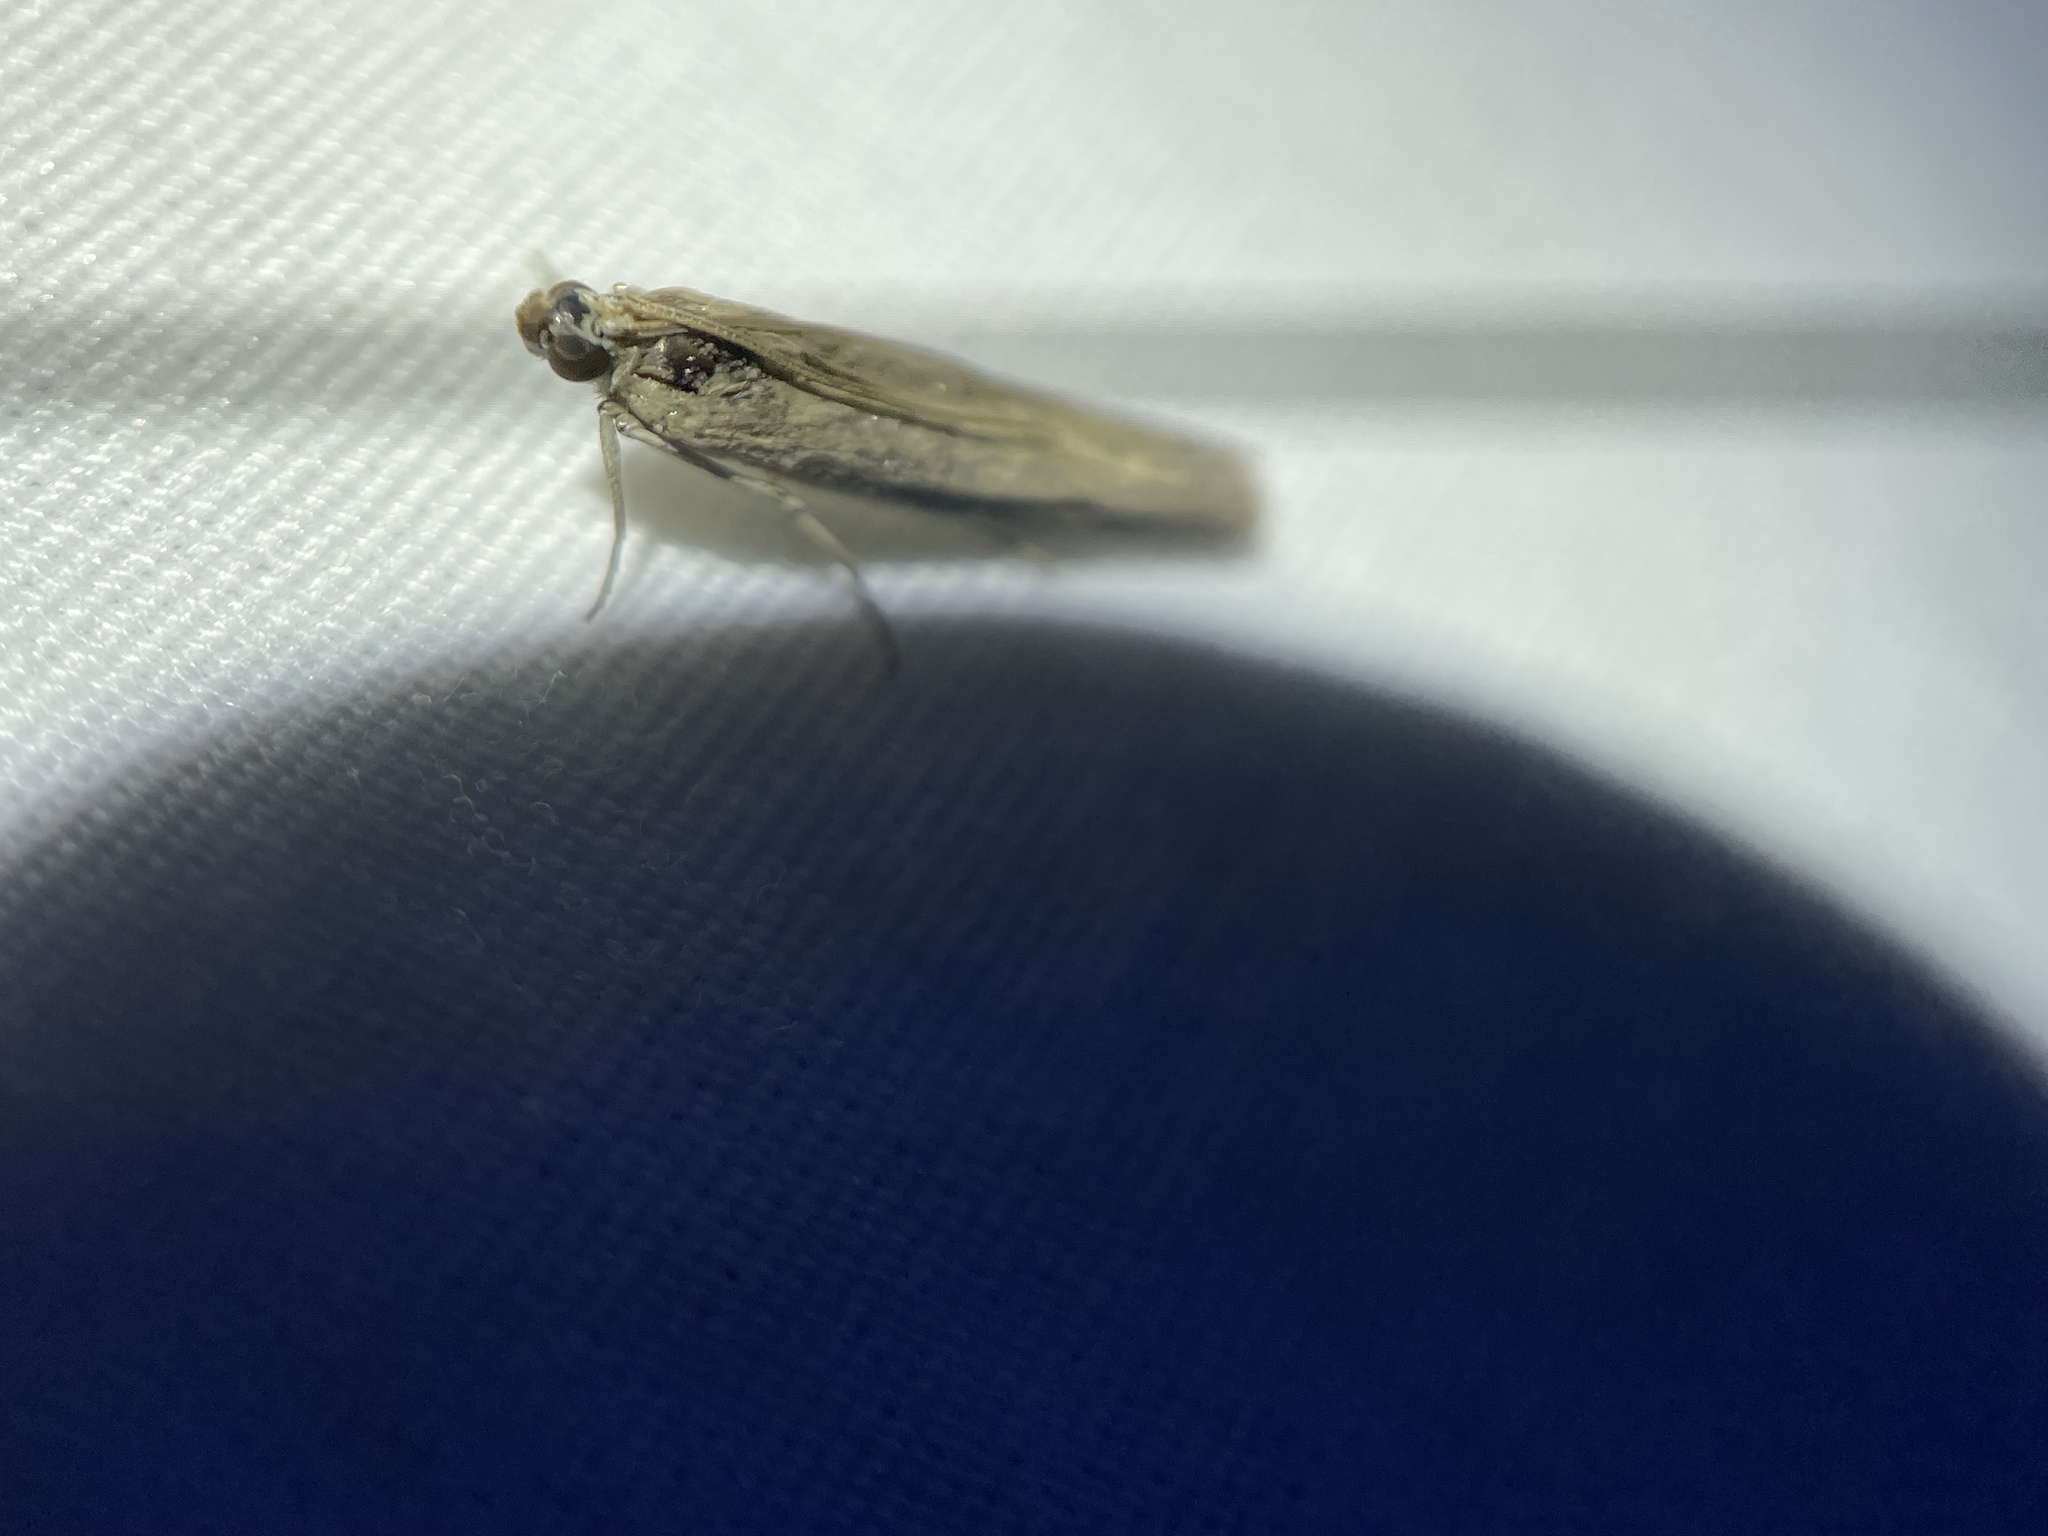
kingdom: Animalia
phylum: Arthropoda
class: Insecta
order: Lepidoptera
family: Pyralidae
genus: Homoeosoma
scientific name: Homoeosoma electella
